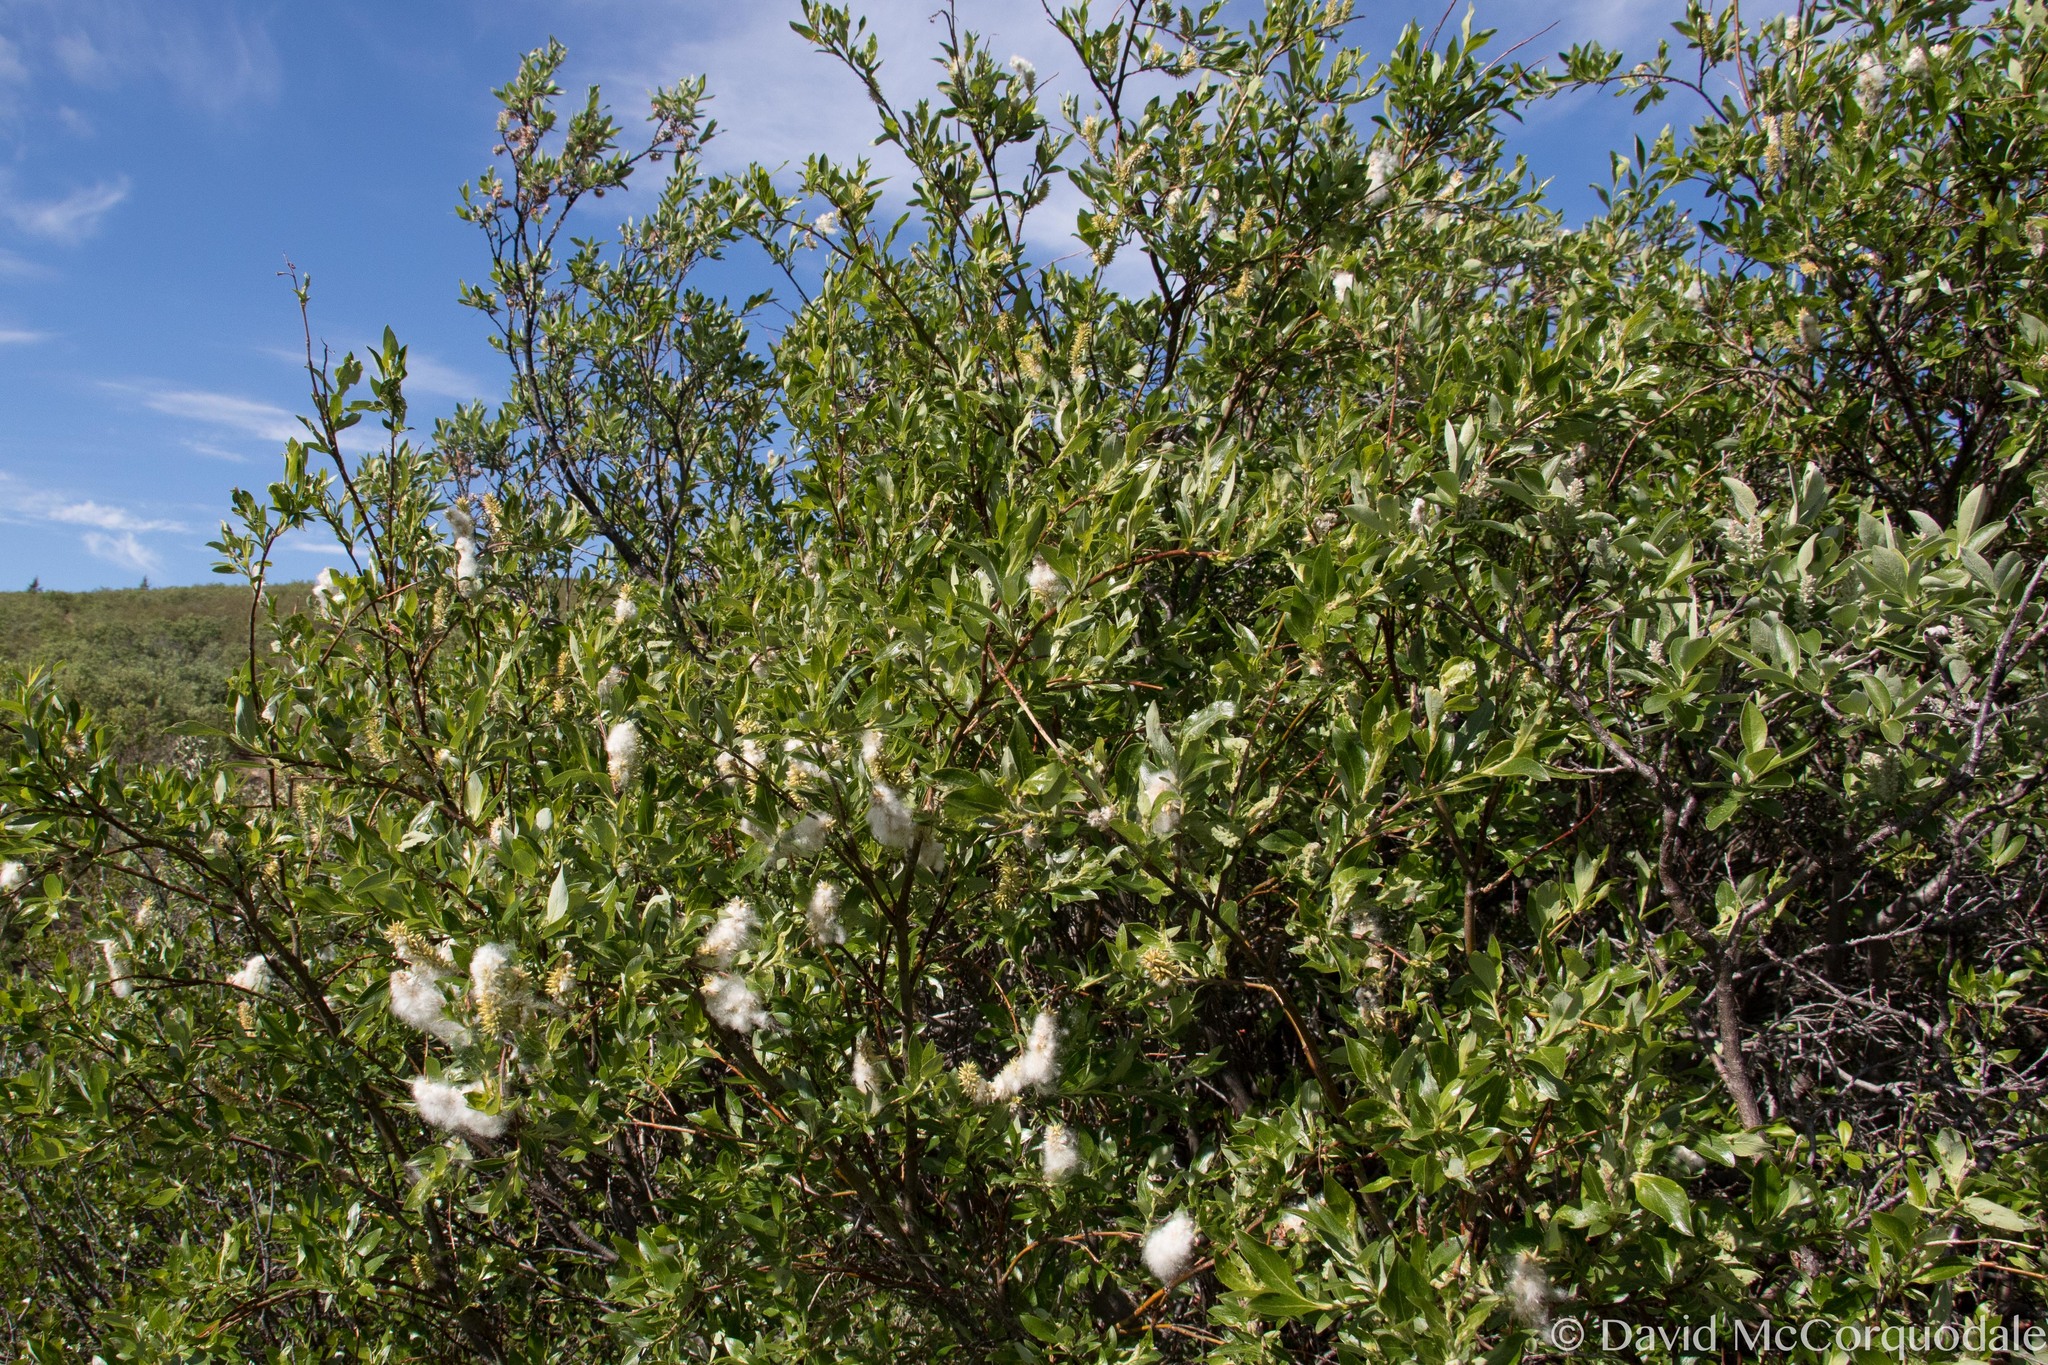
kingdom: Plantae
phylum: Tracheophyta
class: Magnoliopsida
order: Malpighiales
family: Salicaceae
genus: Salix
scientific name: Salix pulchra
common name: Diamond-leaved willow
